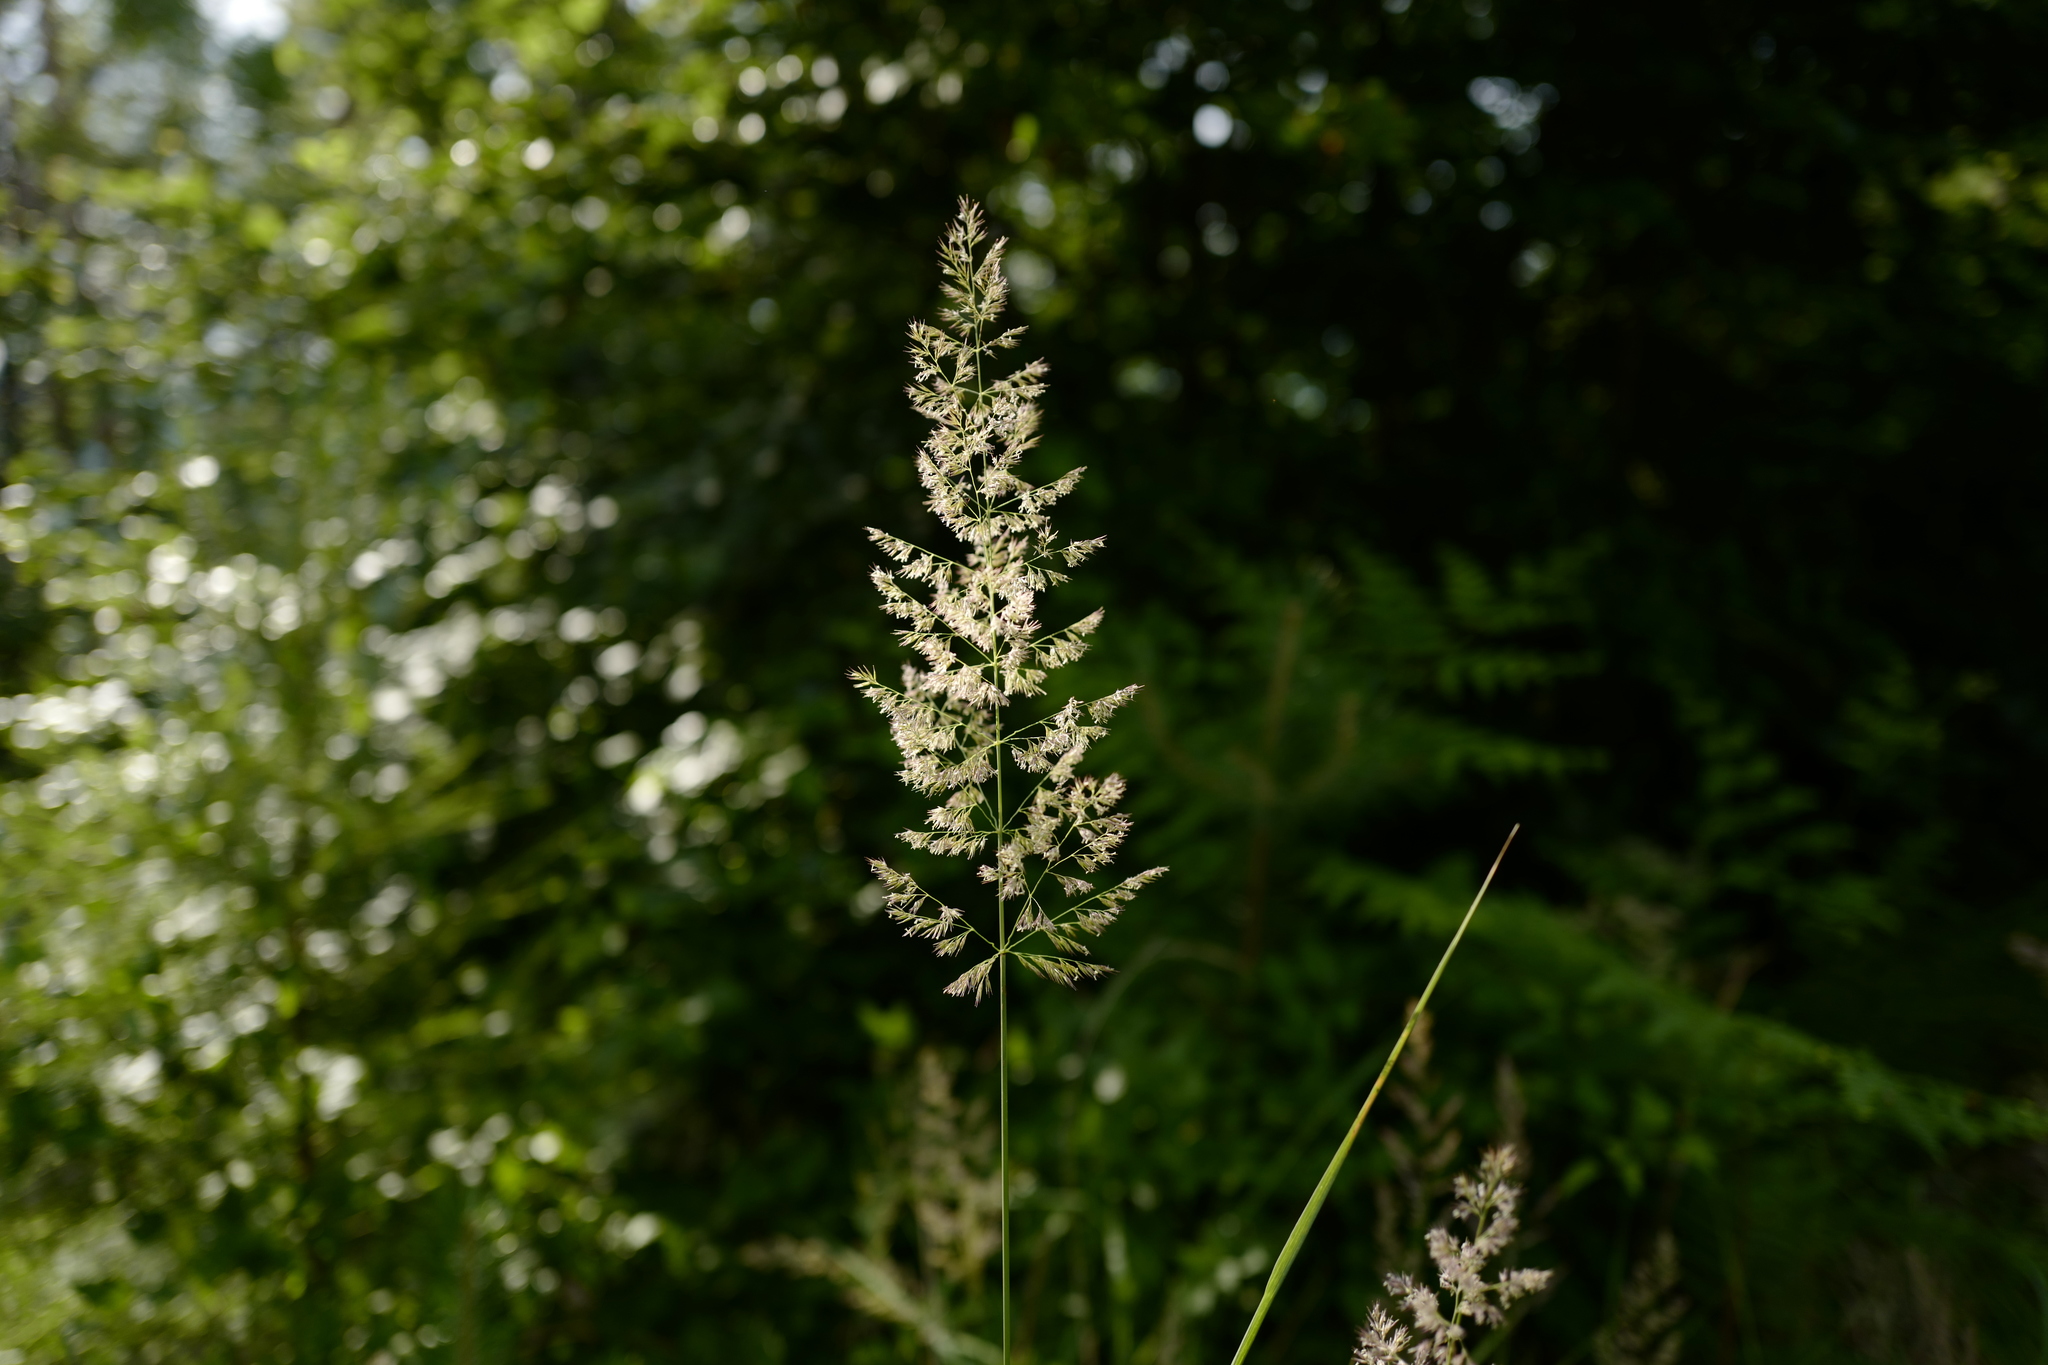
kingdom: Plantae
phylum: Tracheophyta
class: Liliopsida
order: Poales
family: Poaceae
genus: Calamagrostis
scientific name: Calamagrostis epigejos
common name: Wood small-reed
